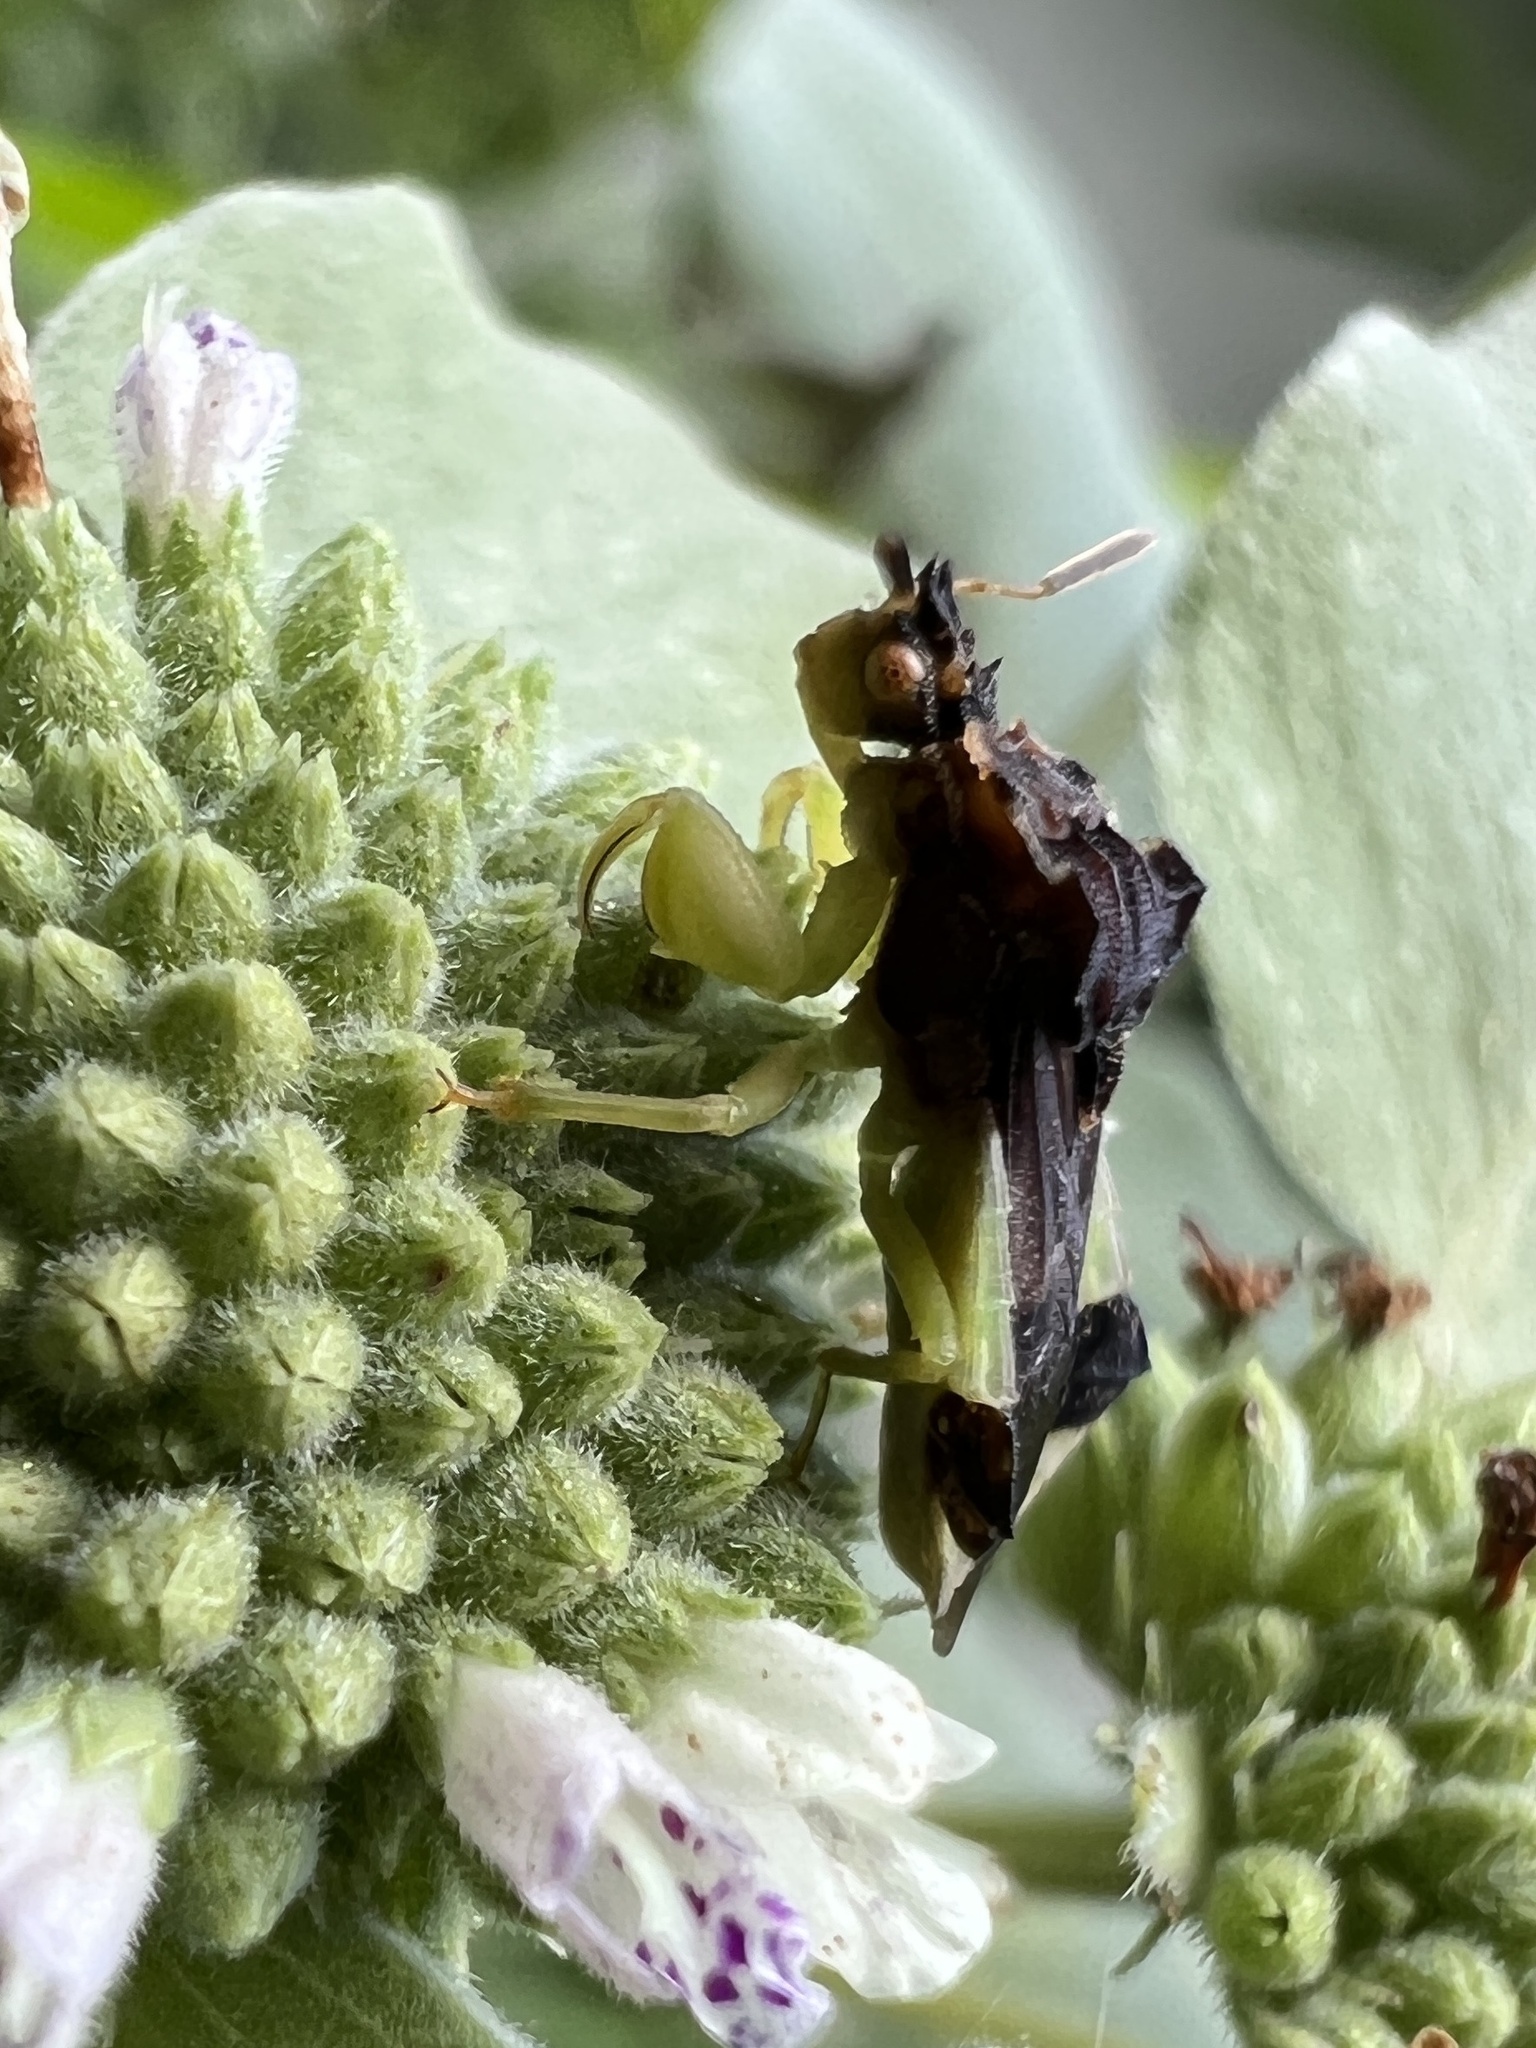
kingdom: Animalia
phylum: Arthropoda
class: Insecta
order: Hemiptera
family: Reduviidae
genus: Phymata
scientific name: Phymata pennsylvanica
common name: Pennsylvania ambush bug
